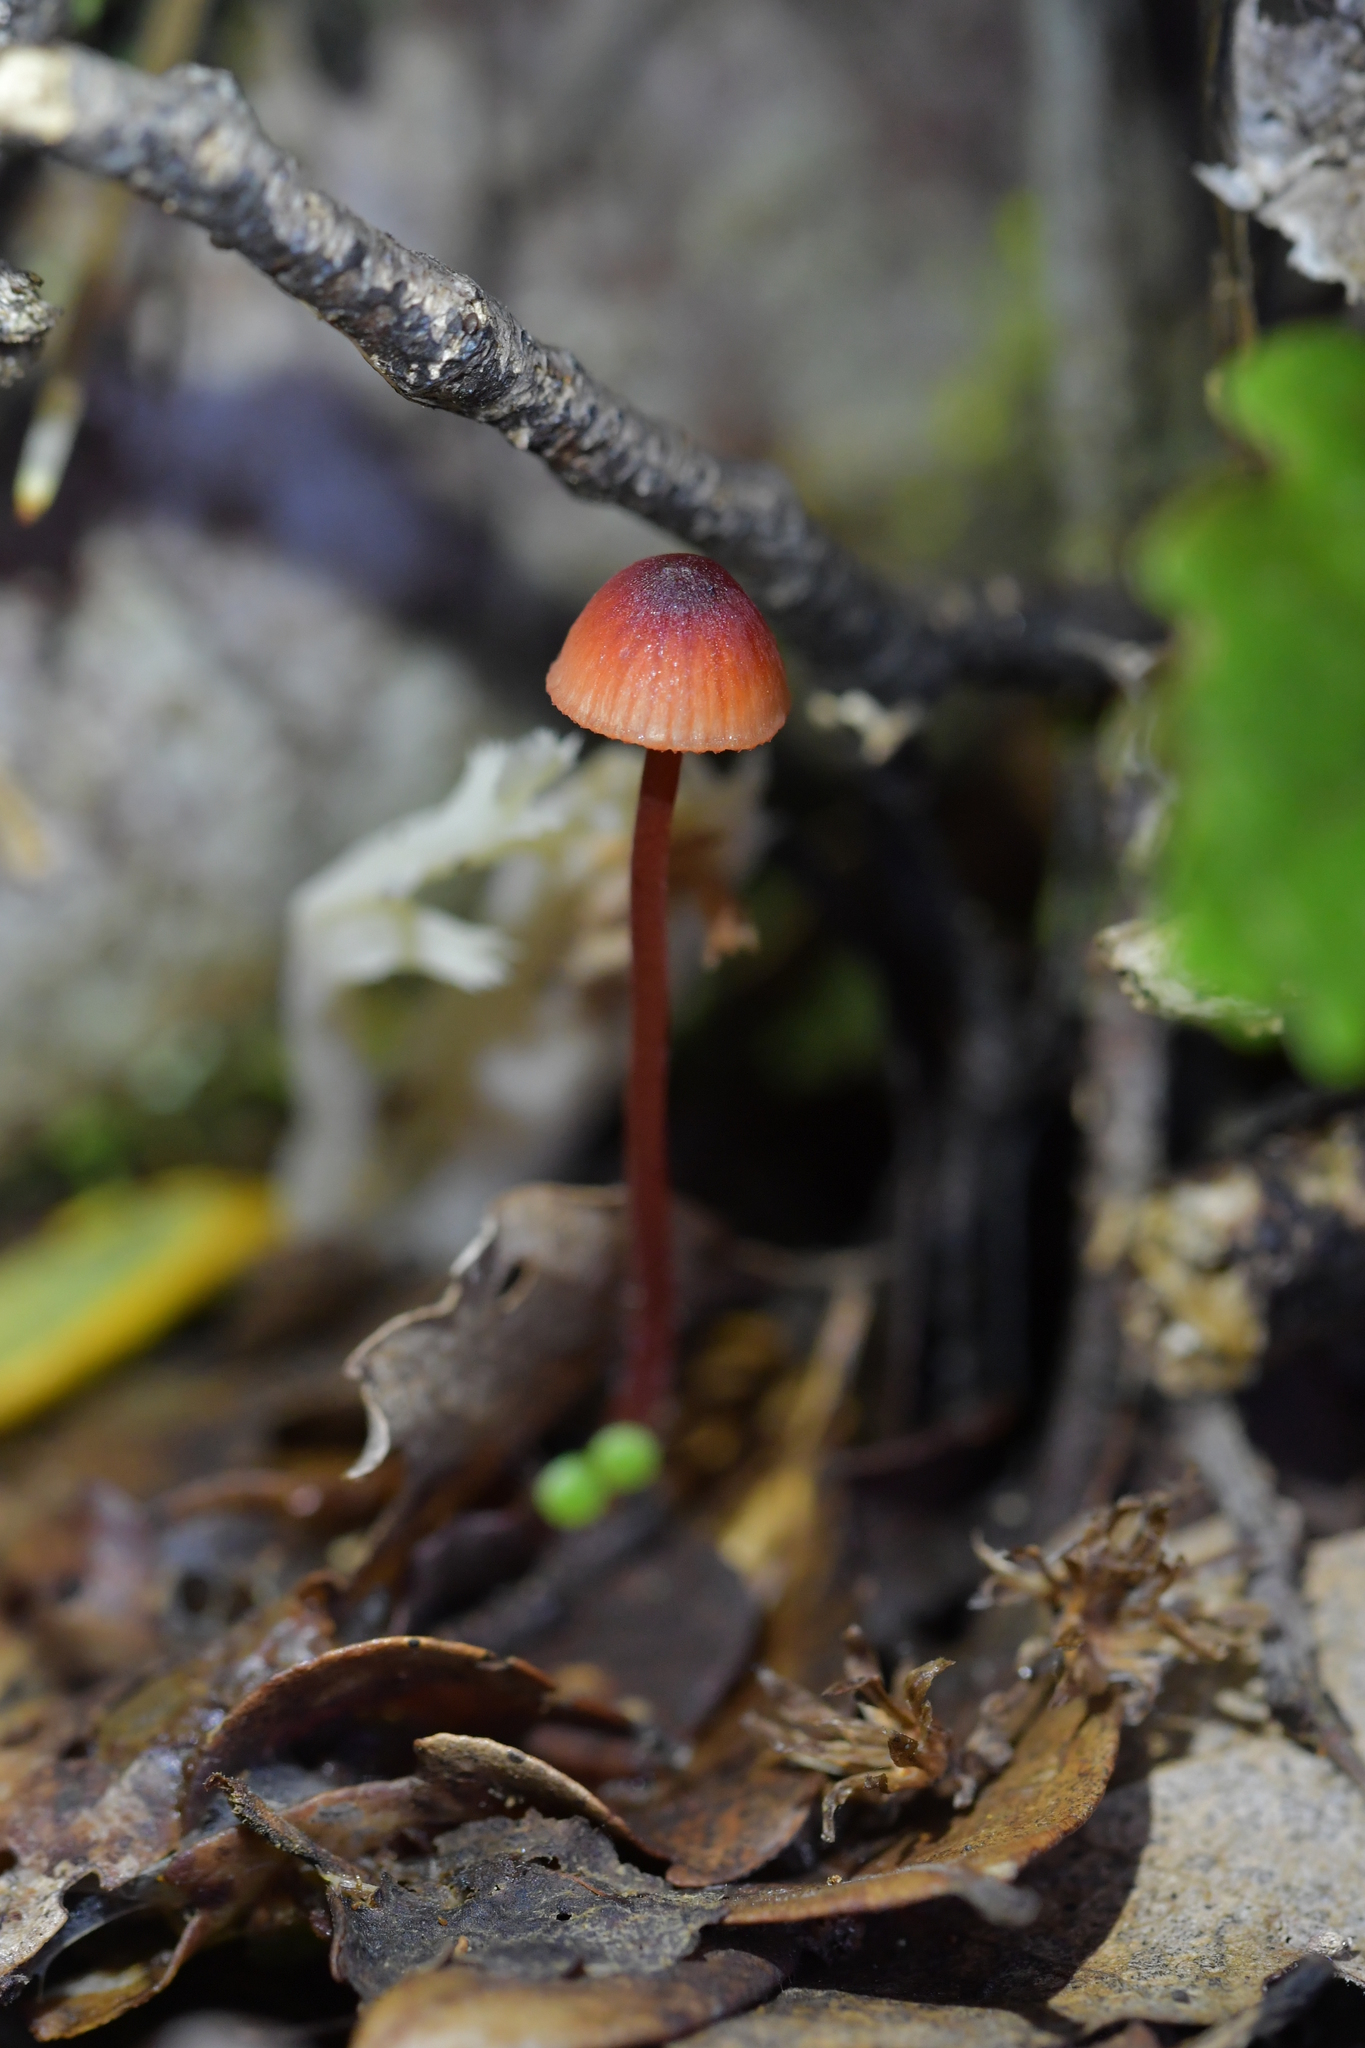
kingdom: Fungi
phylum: Basidiomycota
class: Agaricomycetes
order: Agaricales
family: Mycenaceae
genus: Mycena
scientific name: Mycena ura
